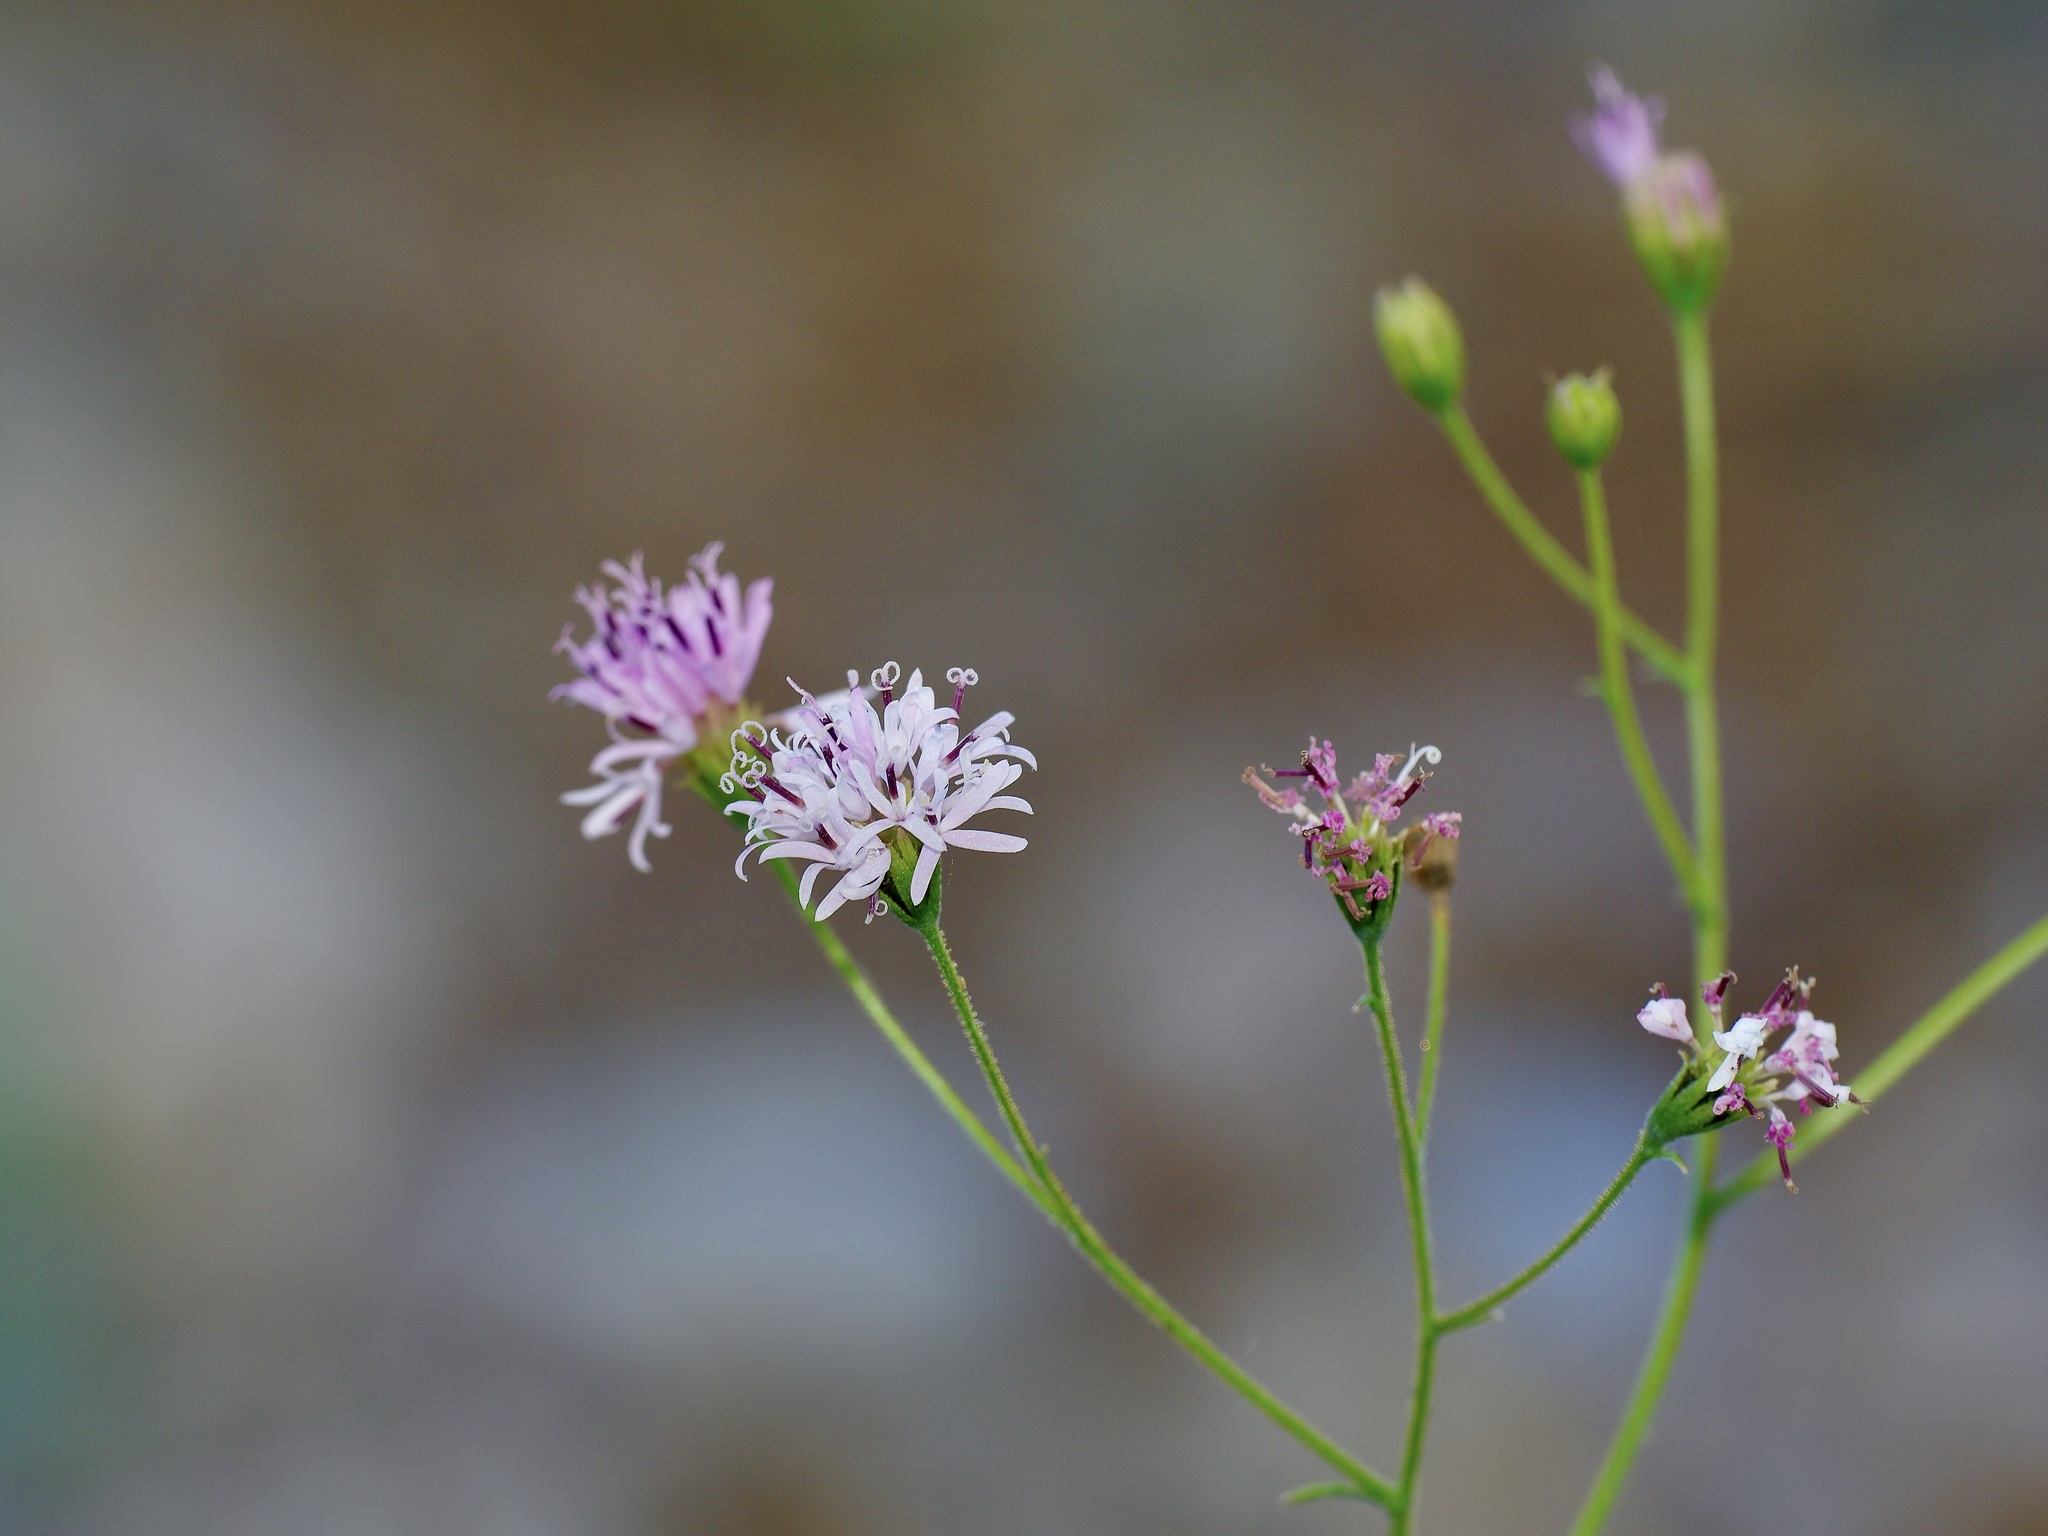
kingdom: Plantae
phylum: Tracheophyta
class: Magnoliopsida
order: Asterales
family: Asteraceae
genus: Palafoxia
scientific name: Palafoxia callosa
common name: Small palafox
